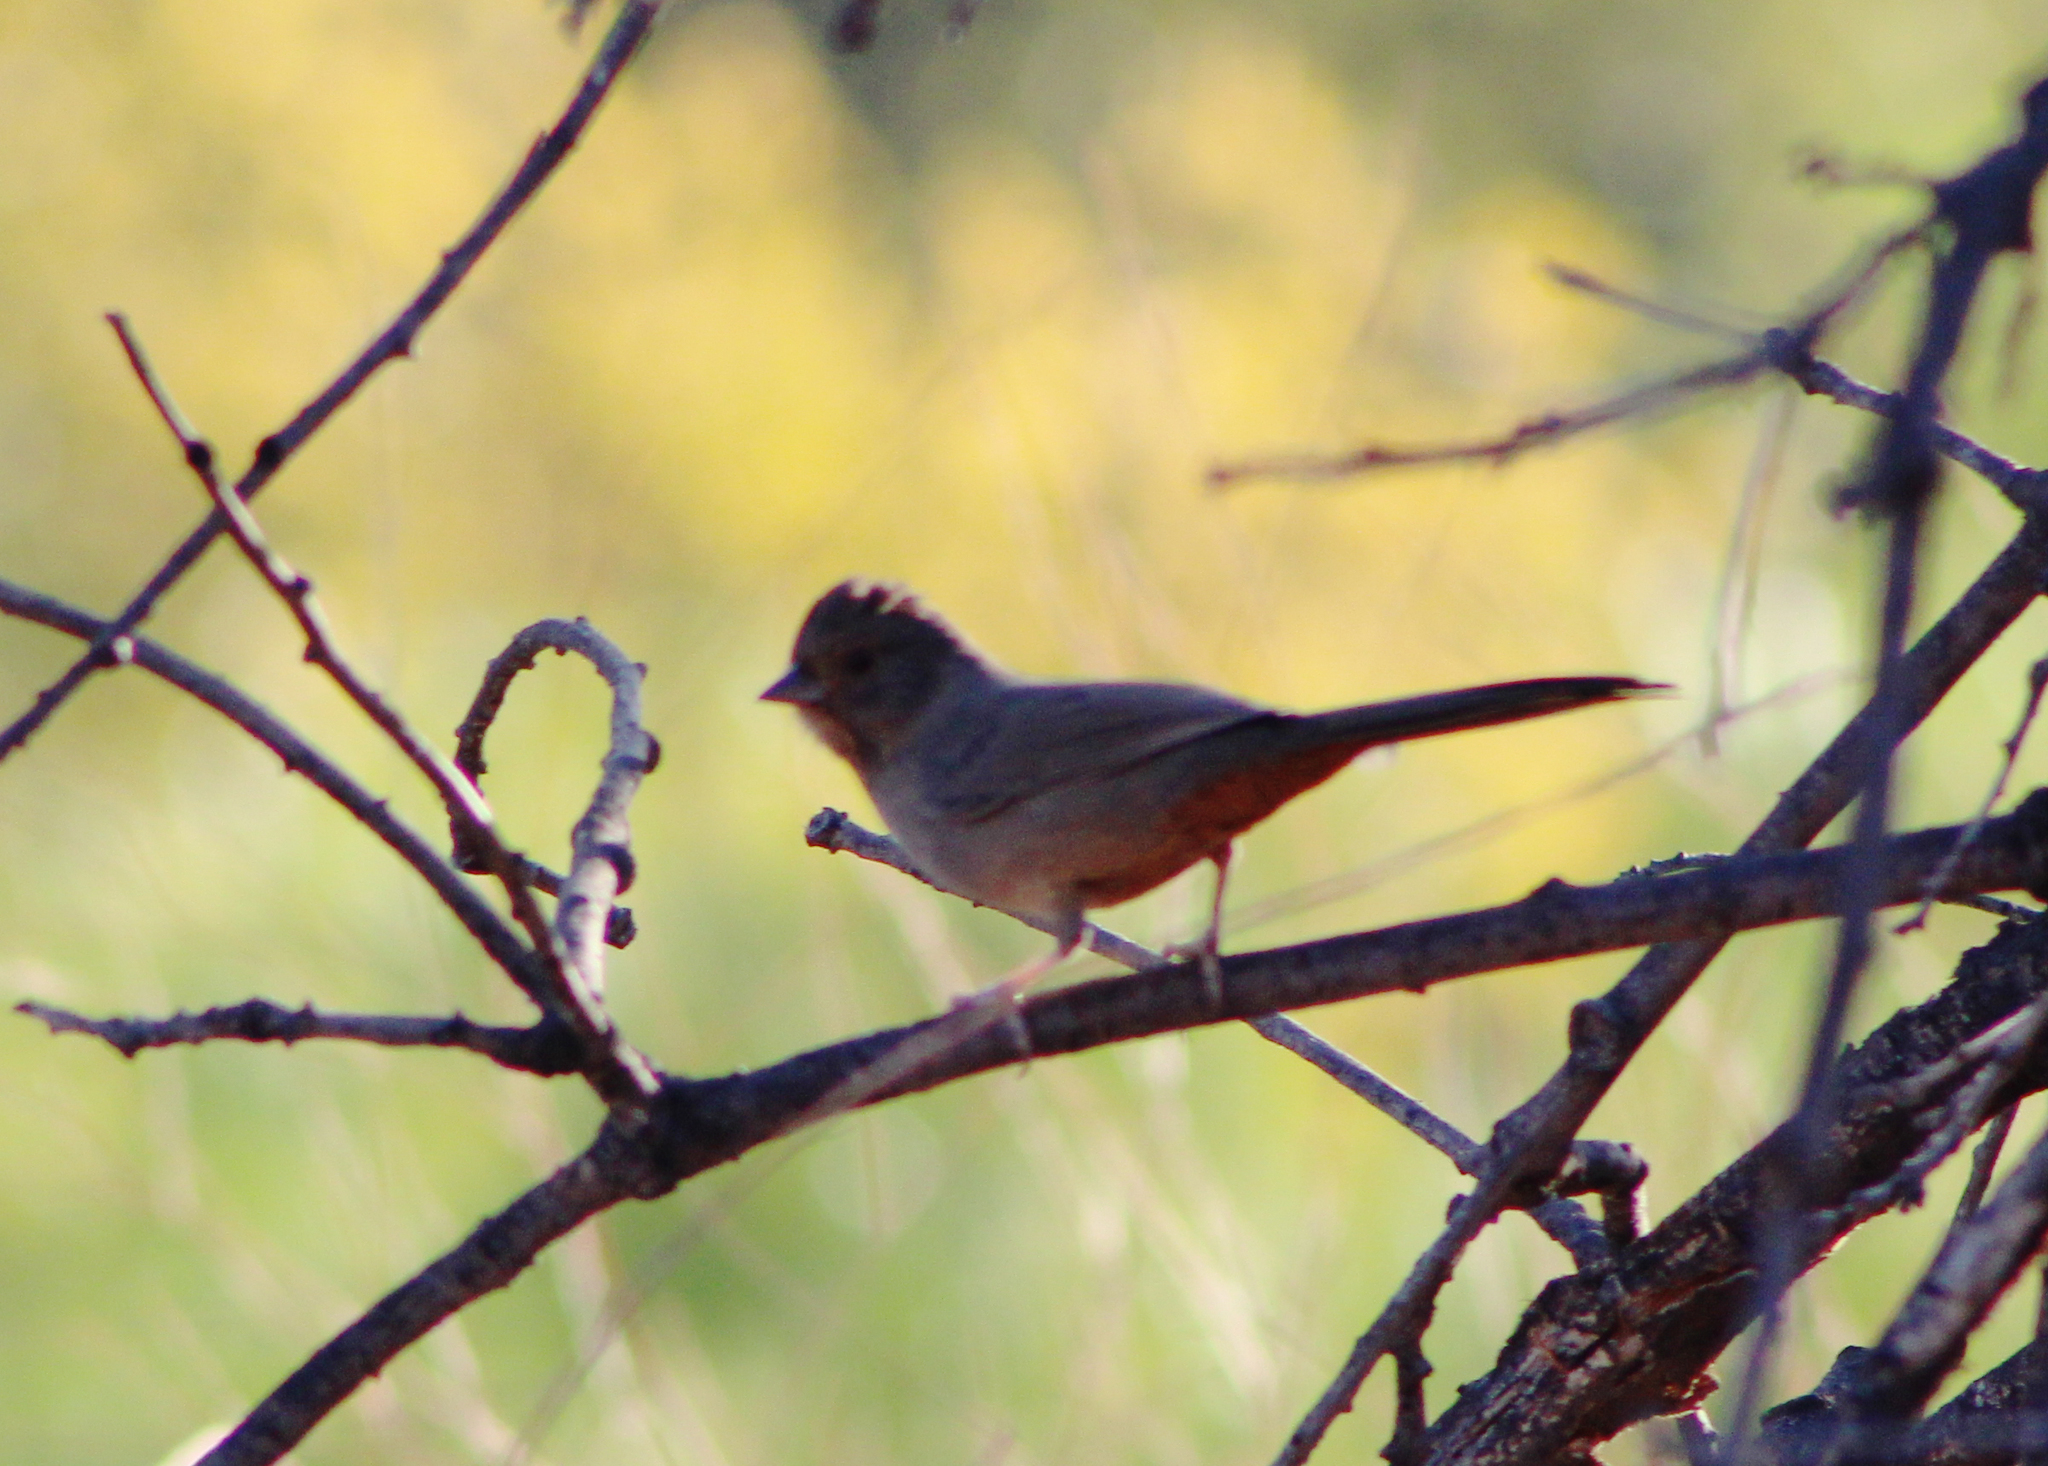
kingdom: Animalia
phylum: Chordata
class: Aves
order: Passeriformes
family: Passerellidae
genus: Melozone
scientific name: Melozone crissalis
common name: California towhee
